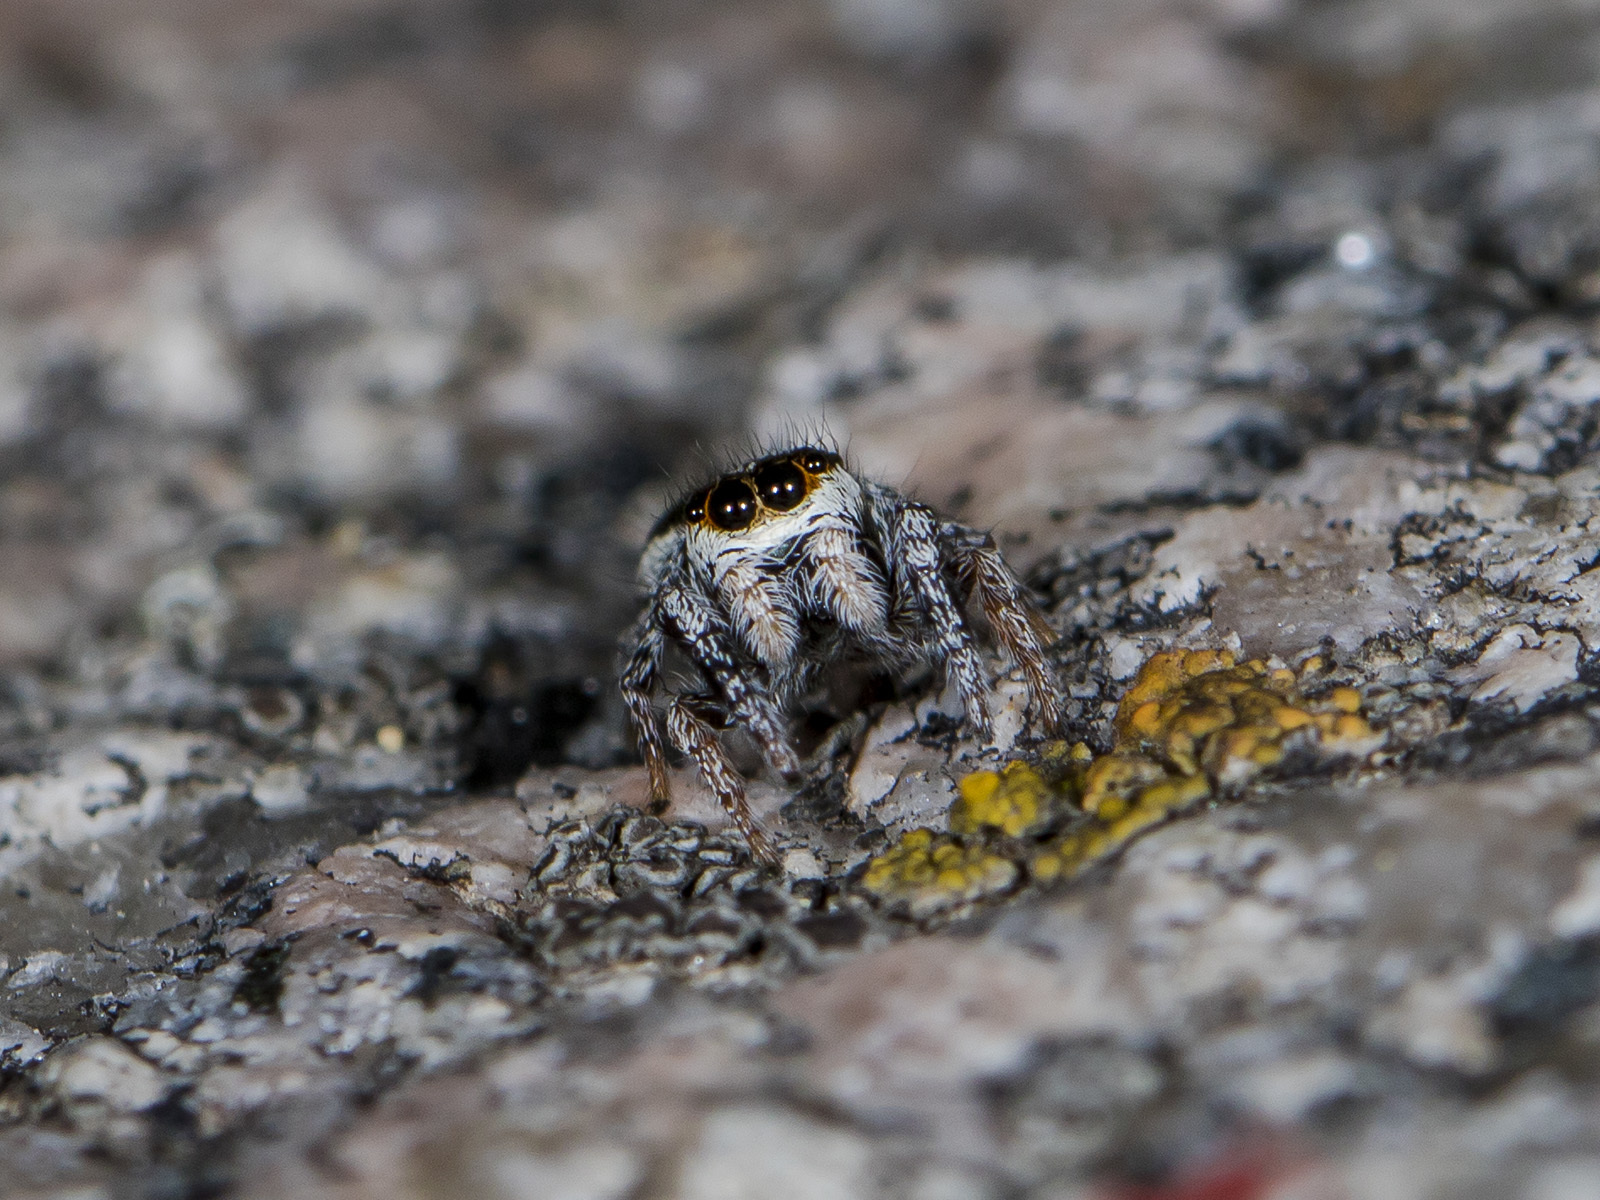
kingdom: Animalia
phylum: Arthropoda
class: Arachnida
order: Araneae
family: Salticidae
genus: Pellenes
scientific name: Pellenes geniculatus
